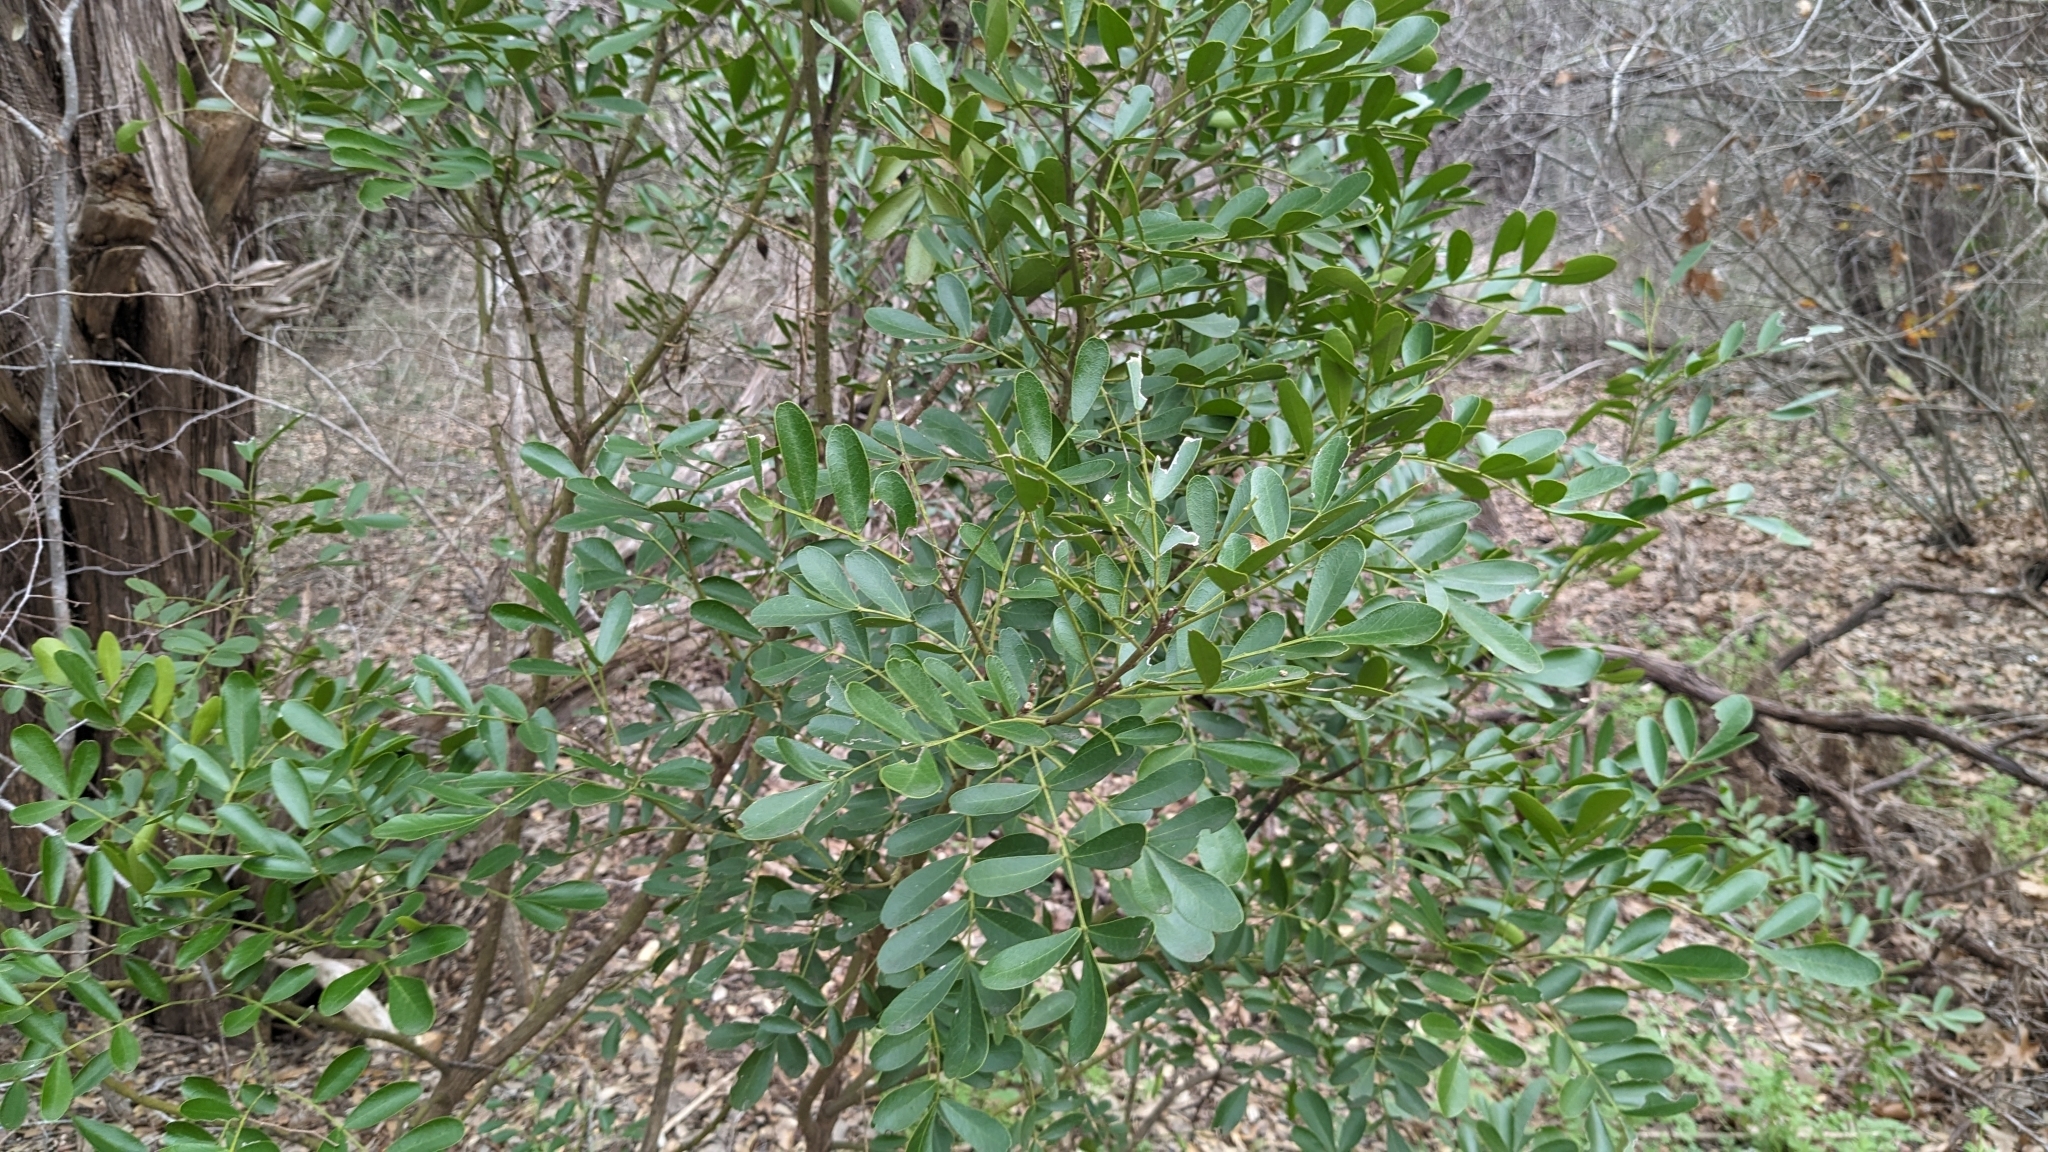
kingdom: Plantae
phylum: Tracheophyta
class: Magnoliopsida
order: Fabales
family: Fabaceae
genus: Dermatophyllum
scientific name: Dermatophyllum secundiflorum
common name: Texas-mountain-laurel
